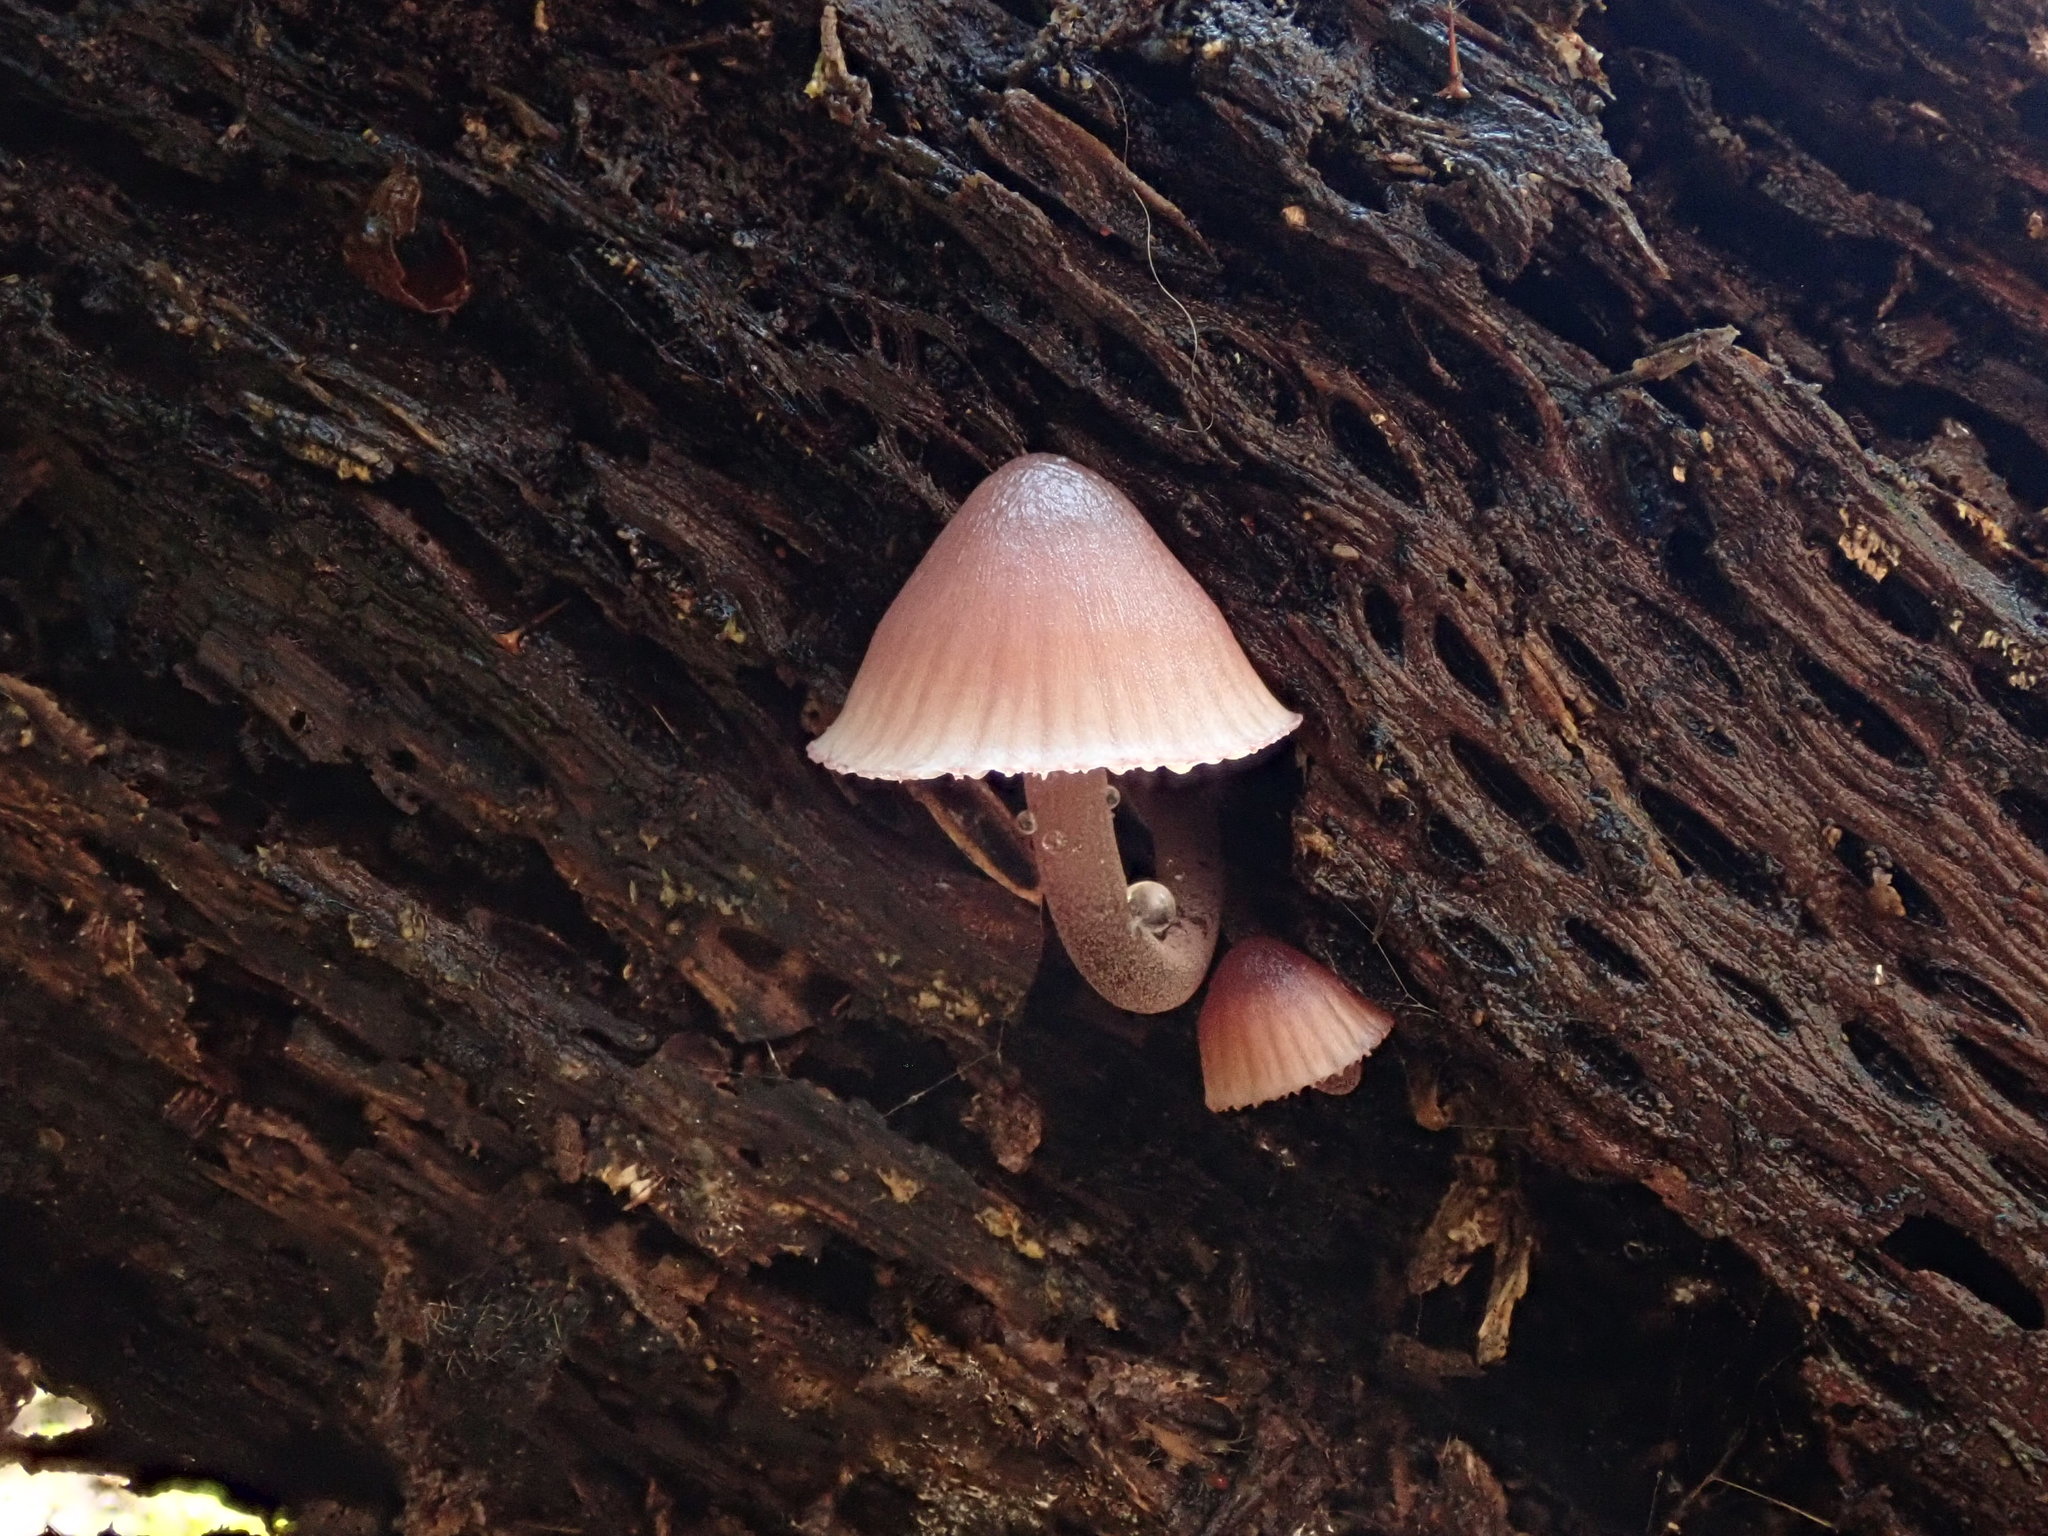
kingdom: Fungi
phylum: Basidiomycota
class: Agaricomycetes
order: Agaricales
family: Mycenaceae
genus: Mycena
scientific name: Mycena haematopus
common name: Burgundydrop bonnet
